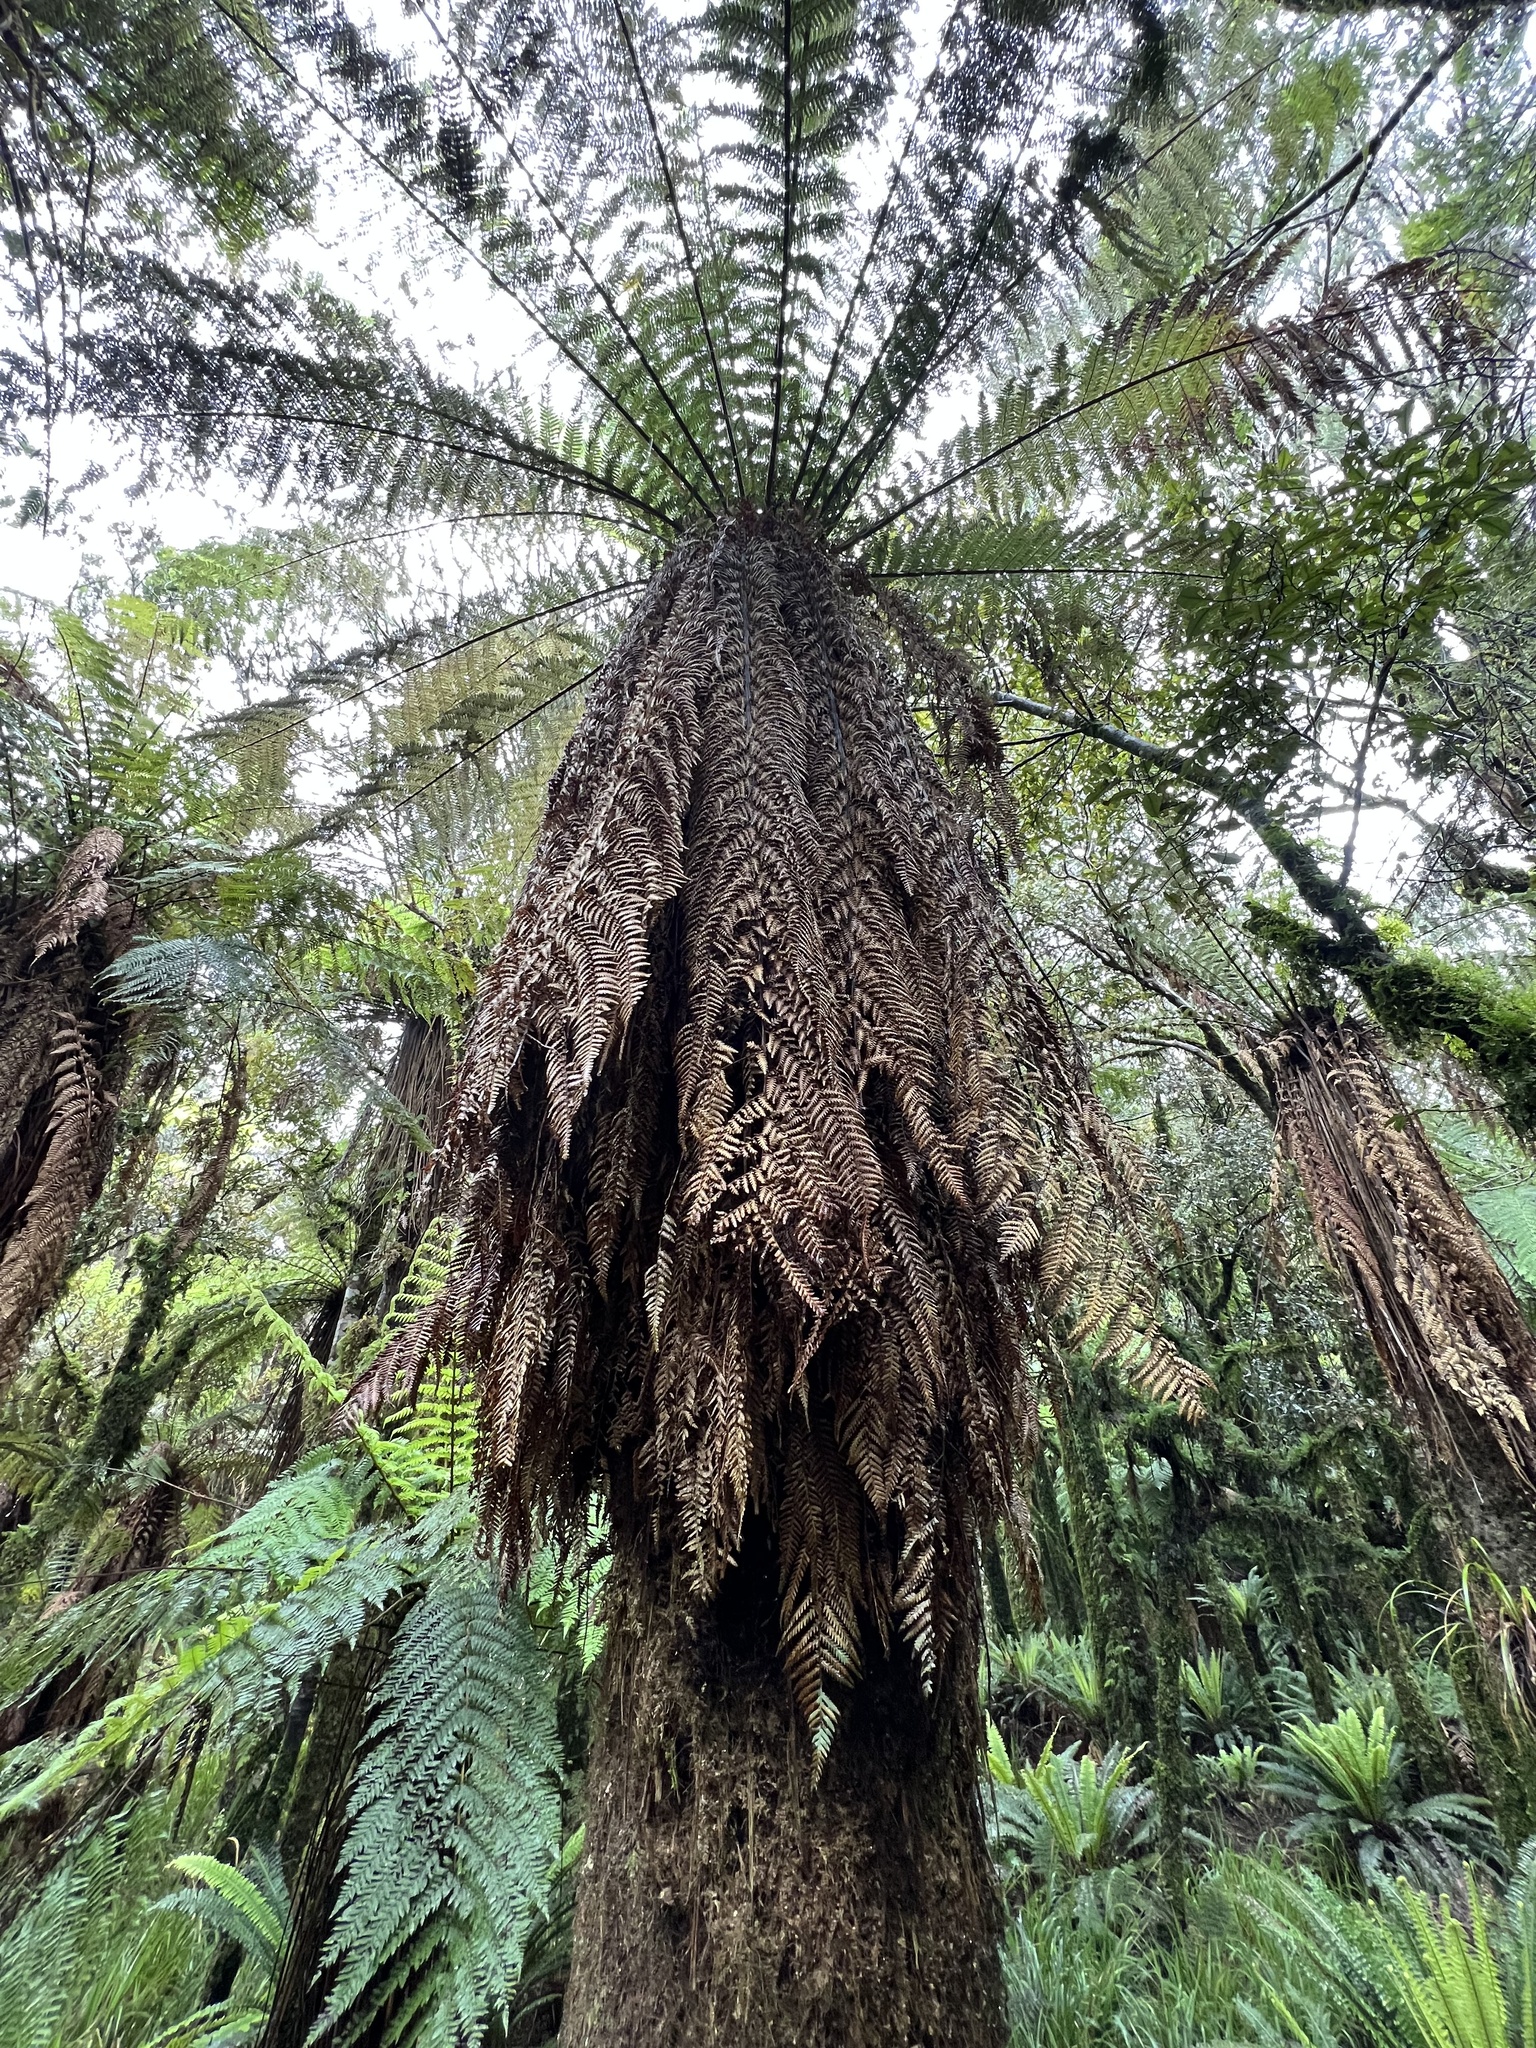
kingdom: Plantae
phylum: Tracheophyta
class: Polypodiopsida
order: Cyatheales
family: Dicksoniaceae
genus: Dicksonia
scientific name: Dicksonia fibrosa
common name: Golden tree fern
